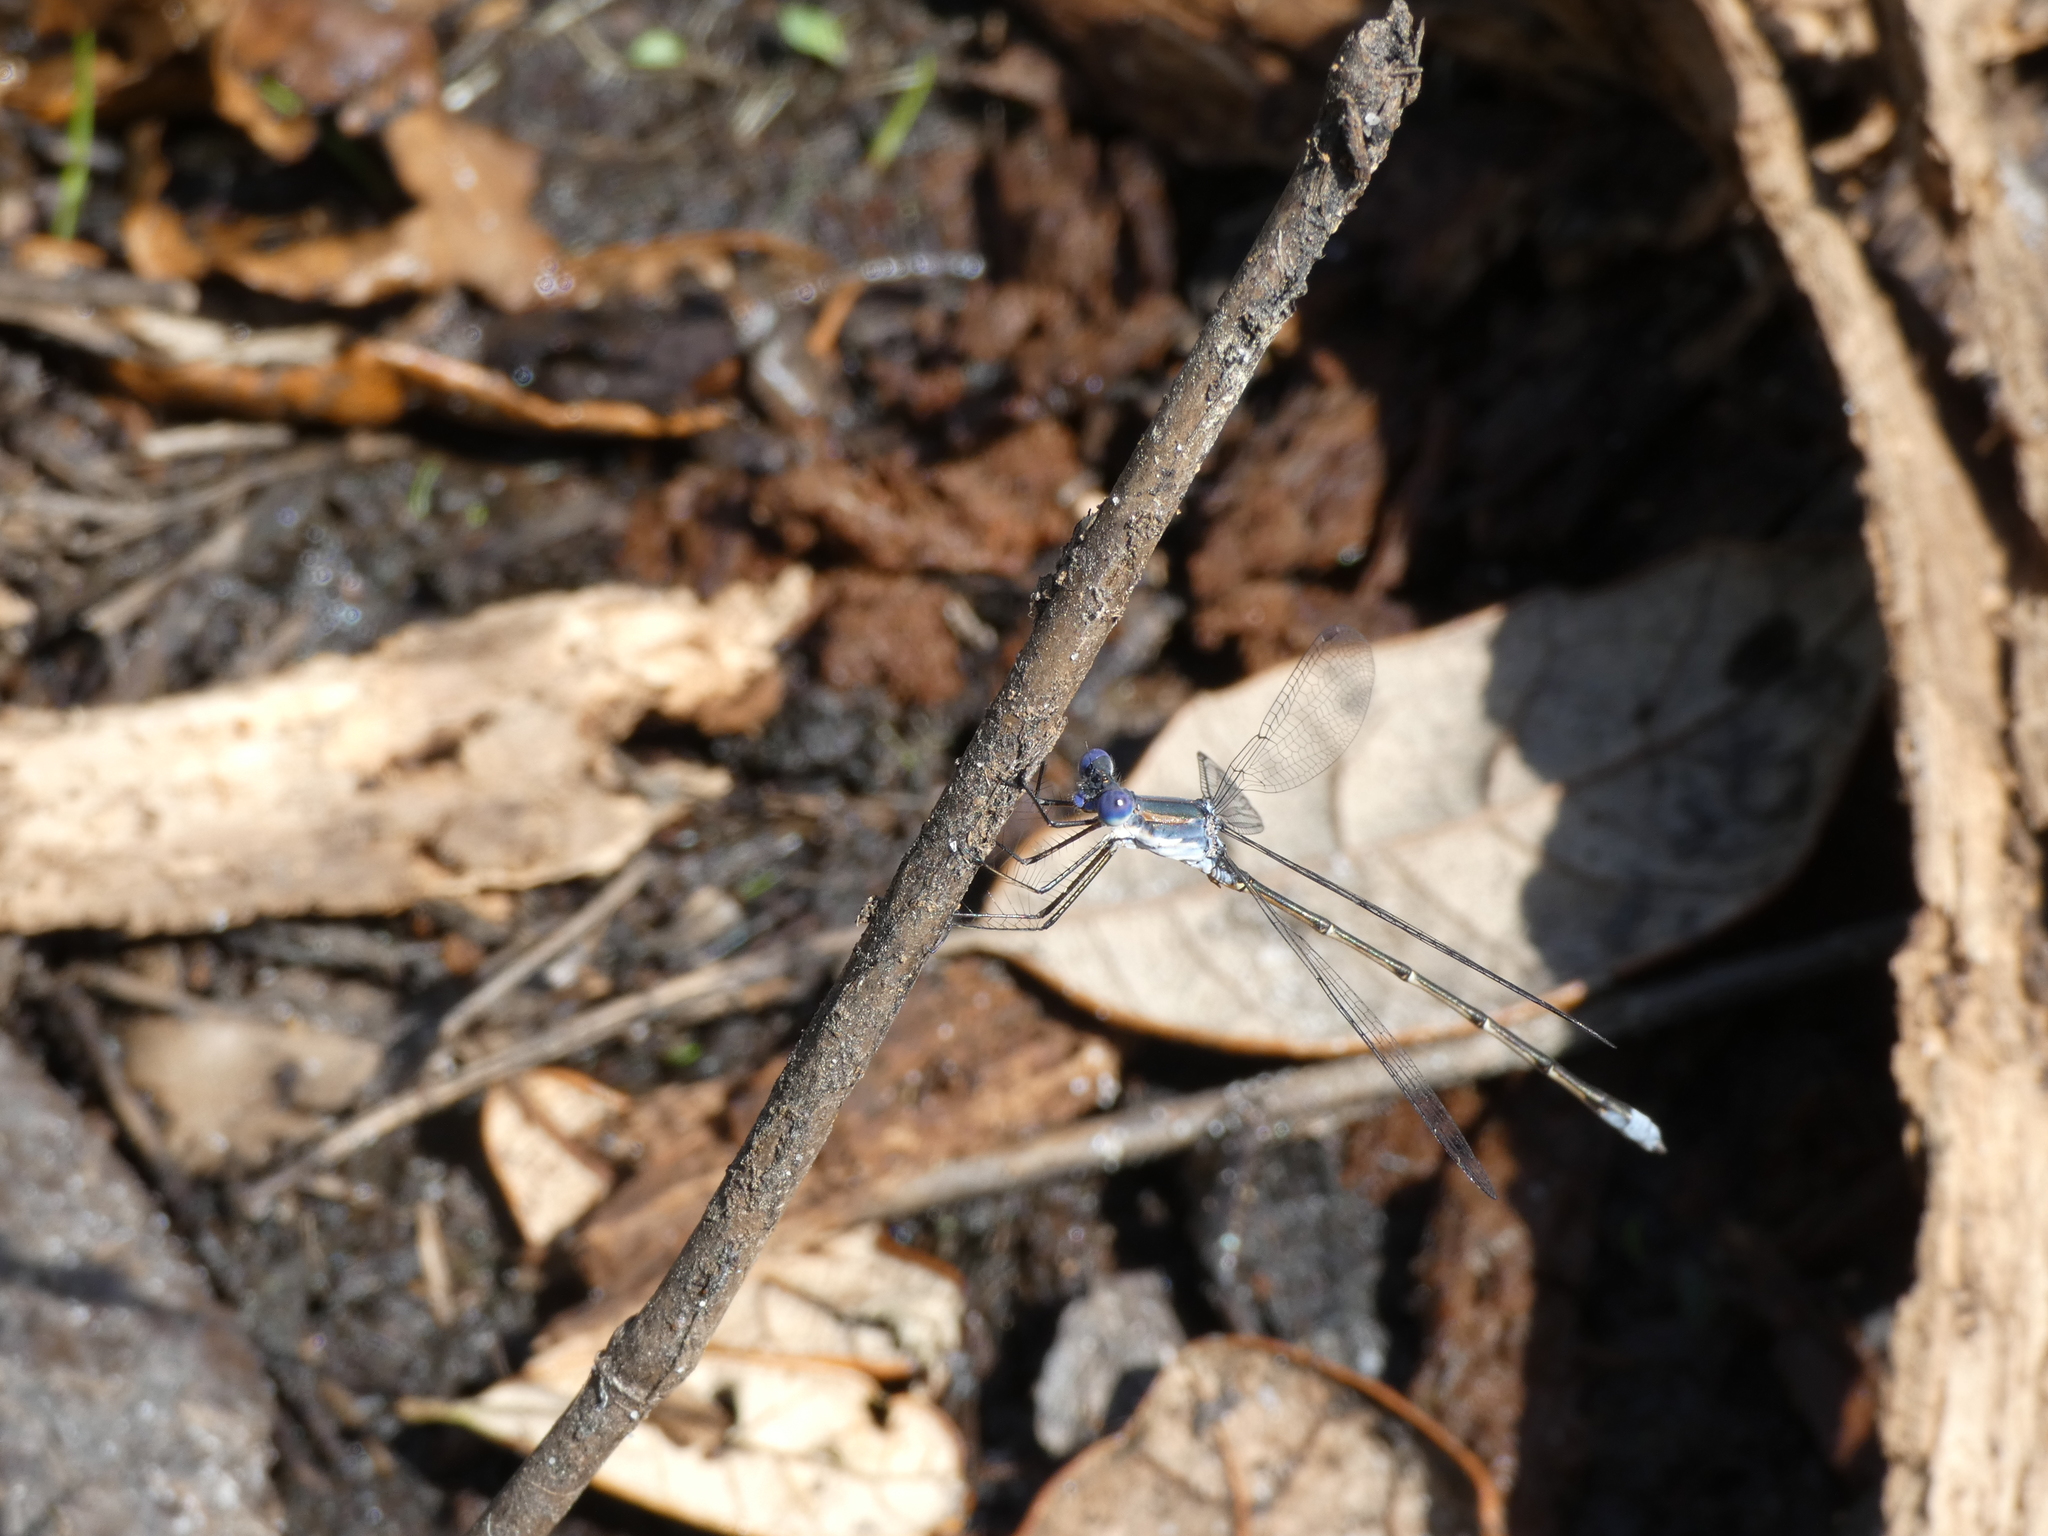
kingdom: Animalia
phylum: Arthropoda
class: Insecta
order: Odonata
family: Lestidae
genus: Lestes
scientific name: Lestes vidua
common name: Carolina spreadwing
